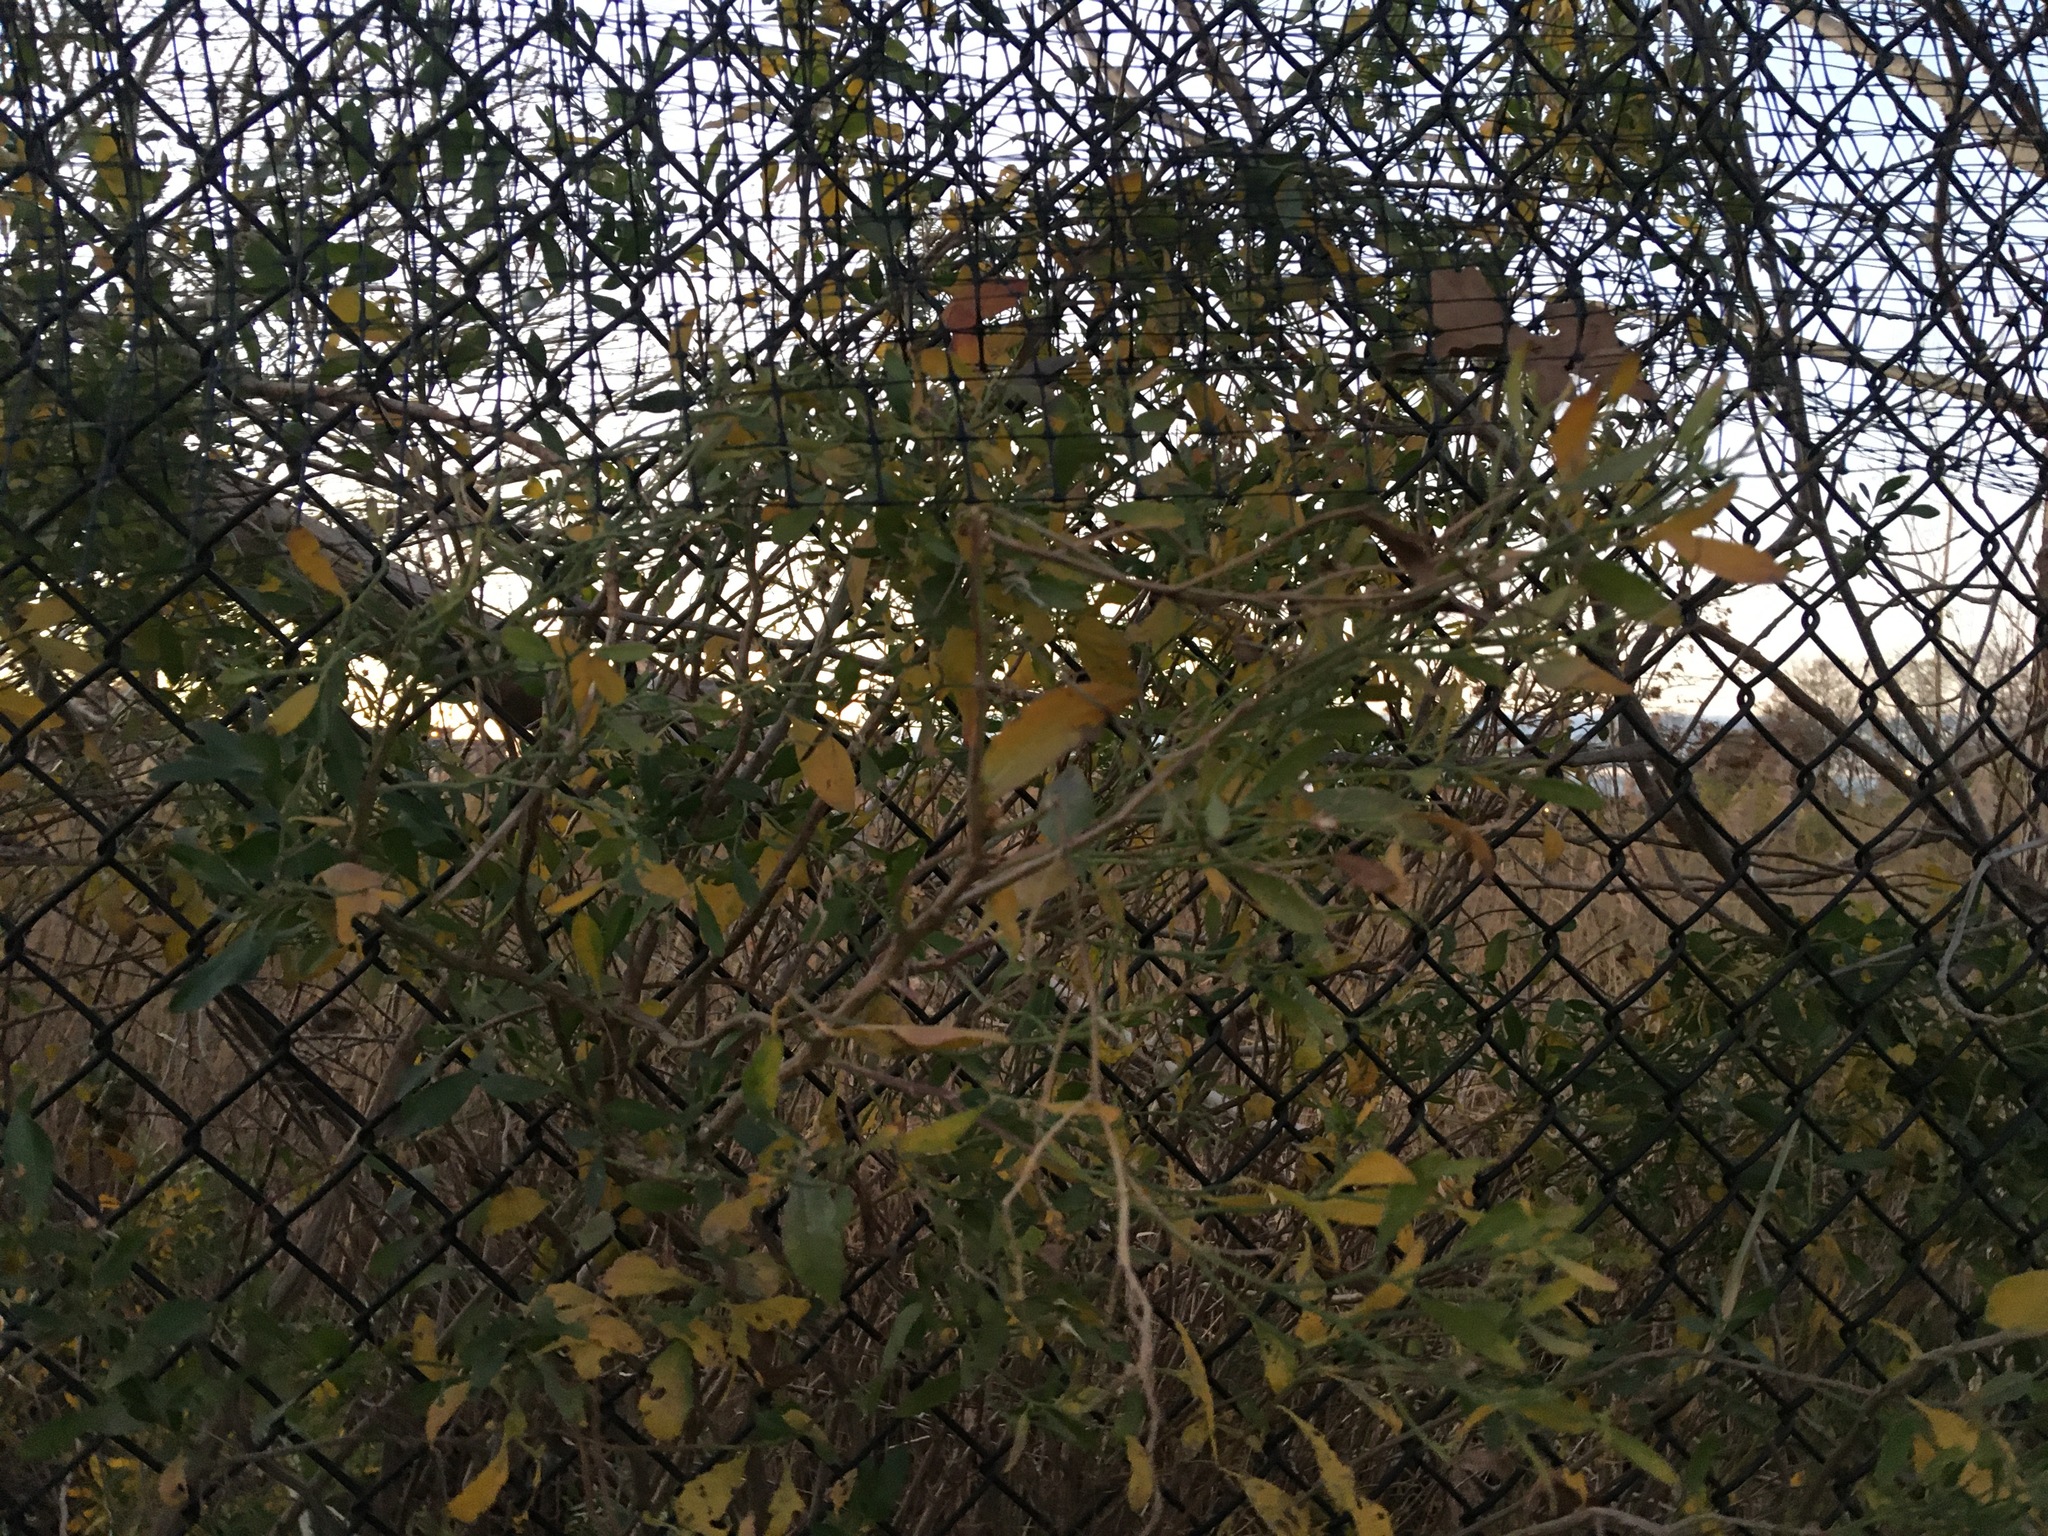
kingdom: Plantae
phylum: Tracheophyta
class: Magnoliopsida
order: Asterales
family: Asteraceae
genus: Baccharis
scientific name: Baccharis halimifolia
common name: Eastern baccharis
